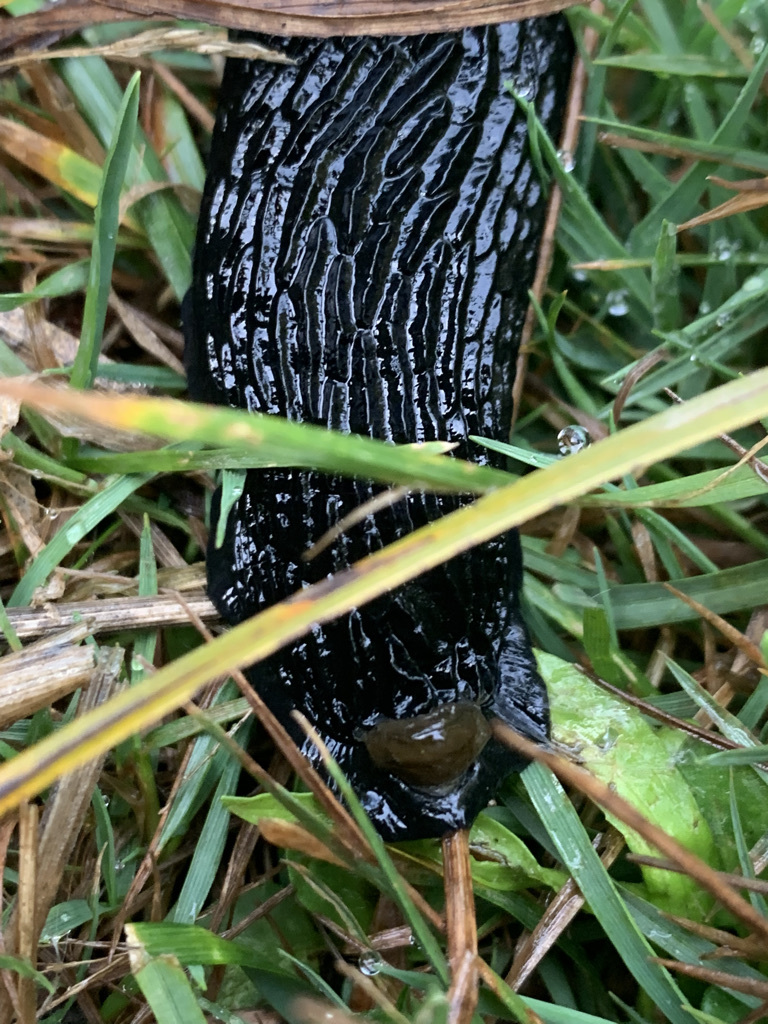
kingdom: Animalia
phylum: Mollusca
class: Gastropoda
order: Stylommatophora
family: Arionidae
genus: Arion
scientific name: Arion
